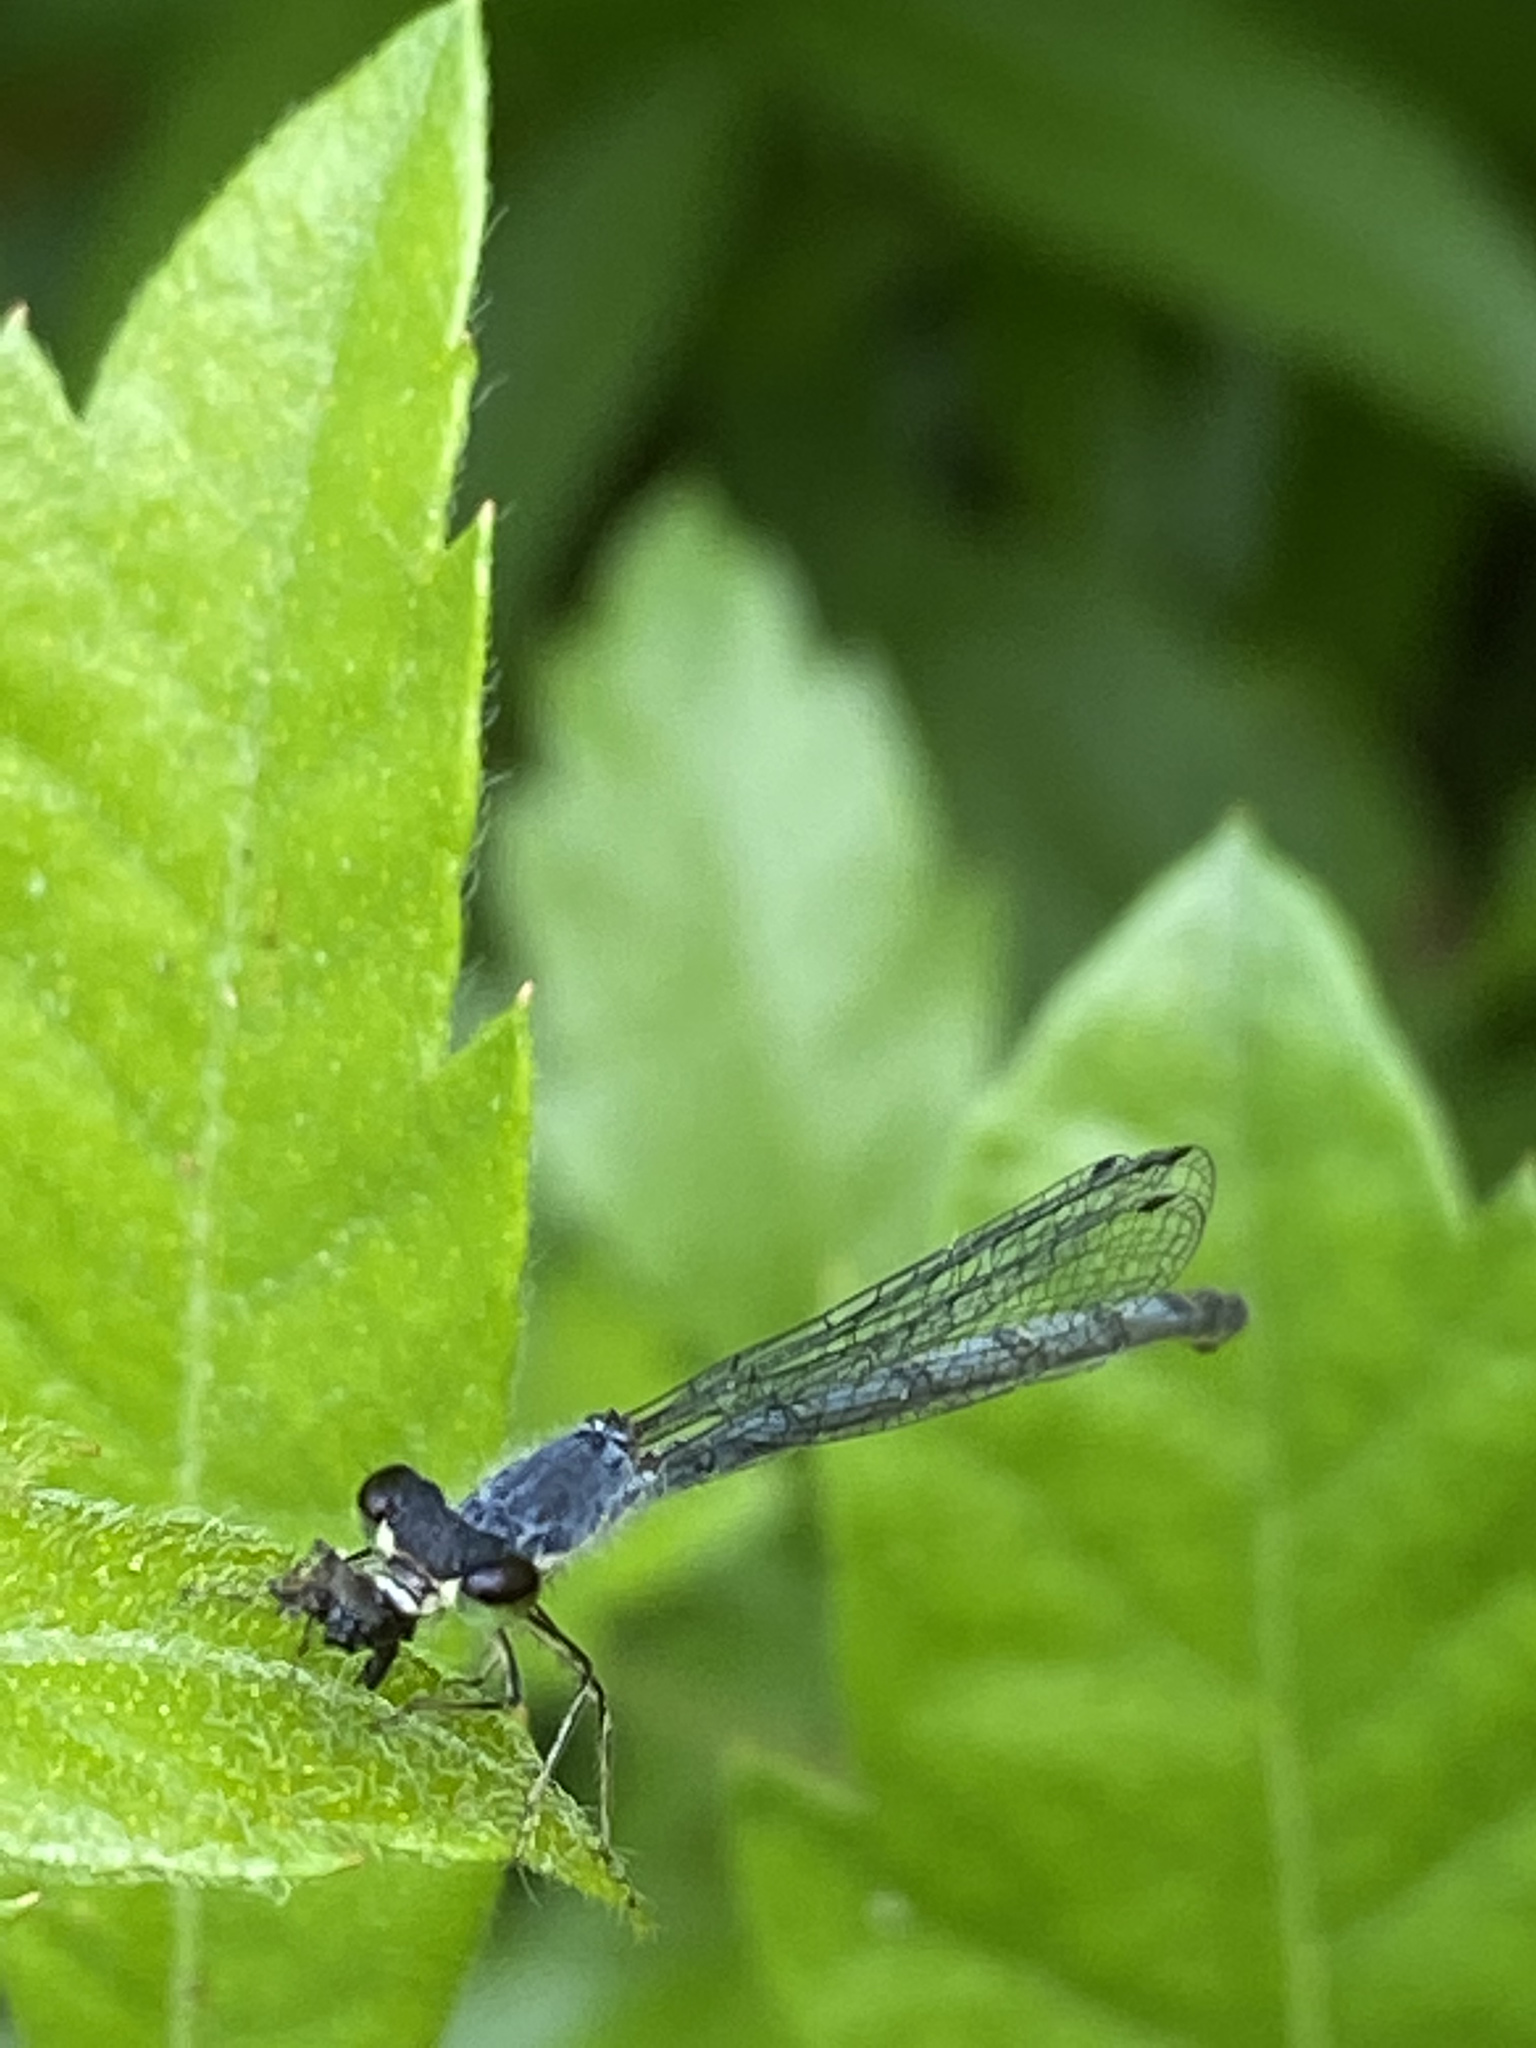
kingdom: Animalia
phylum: Arthropoda
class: Insecta
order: Odonata
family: Coenagrionidae
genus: Ischnura
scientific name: Ischnura posita
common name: Fragile forktail
